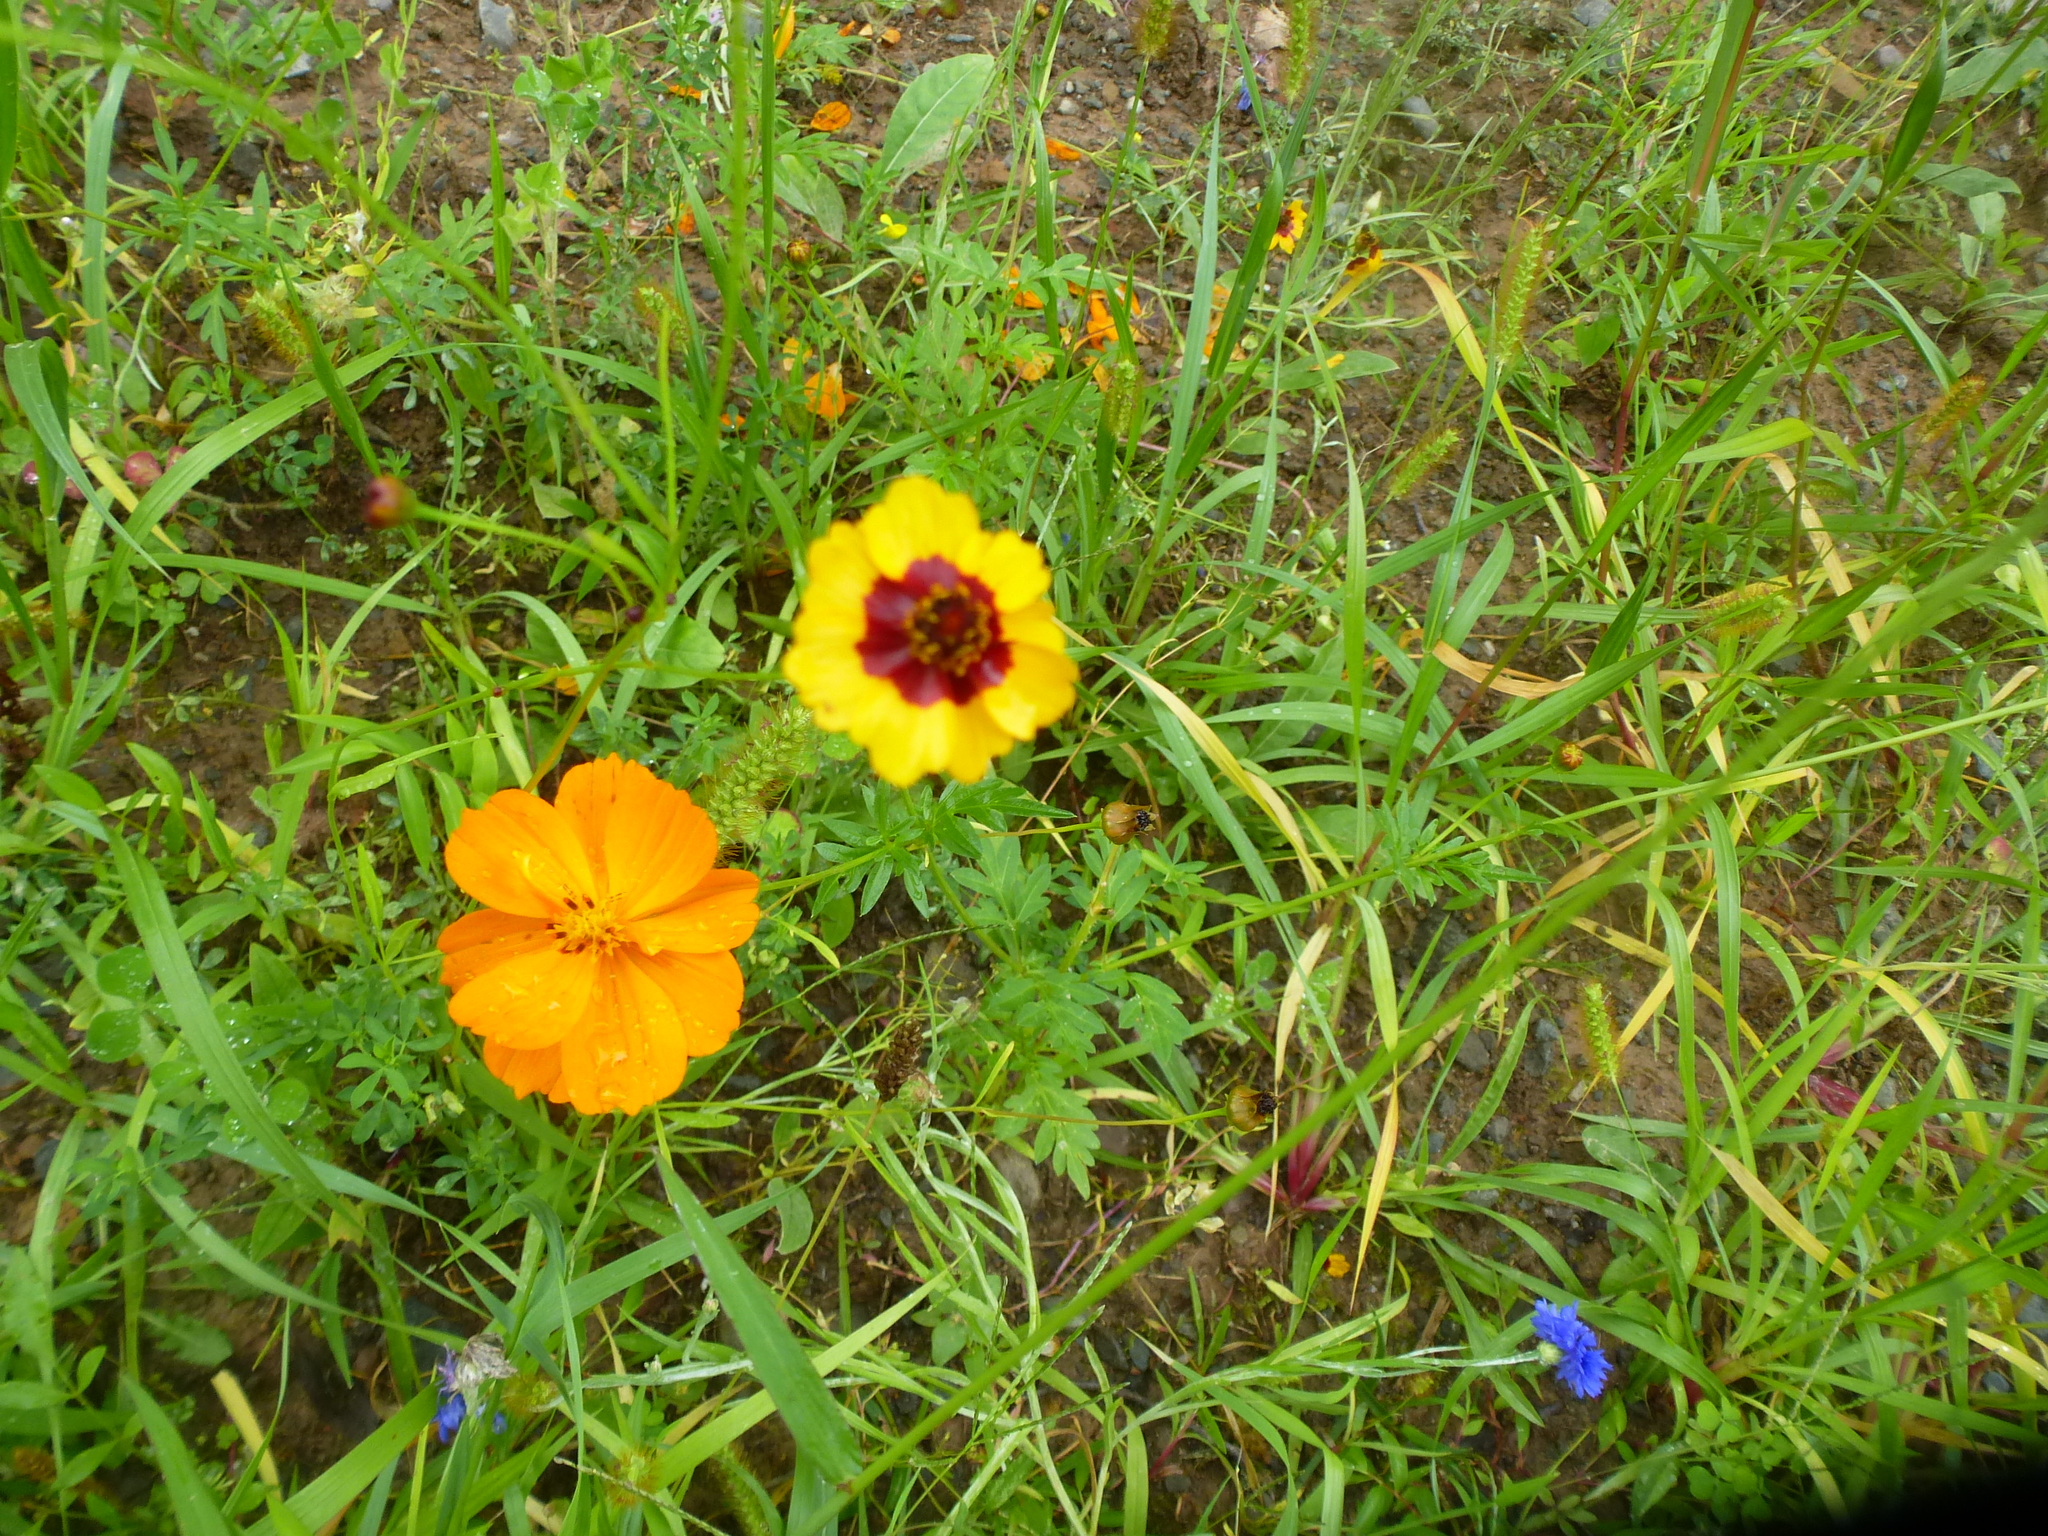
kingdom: Plantae
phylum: Tracheophyta
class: Magnoliopsida
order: Asterales
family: Asteraceae
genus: Coreopsis
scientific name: Coreopsis tinctoria
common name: Garden tickseed
